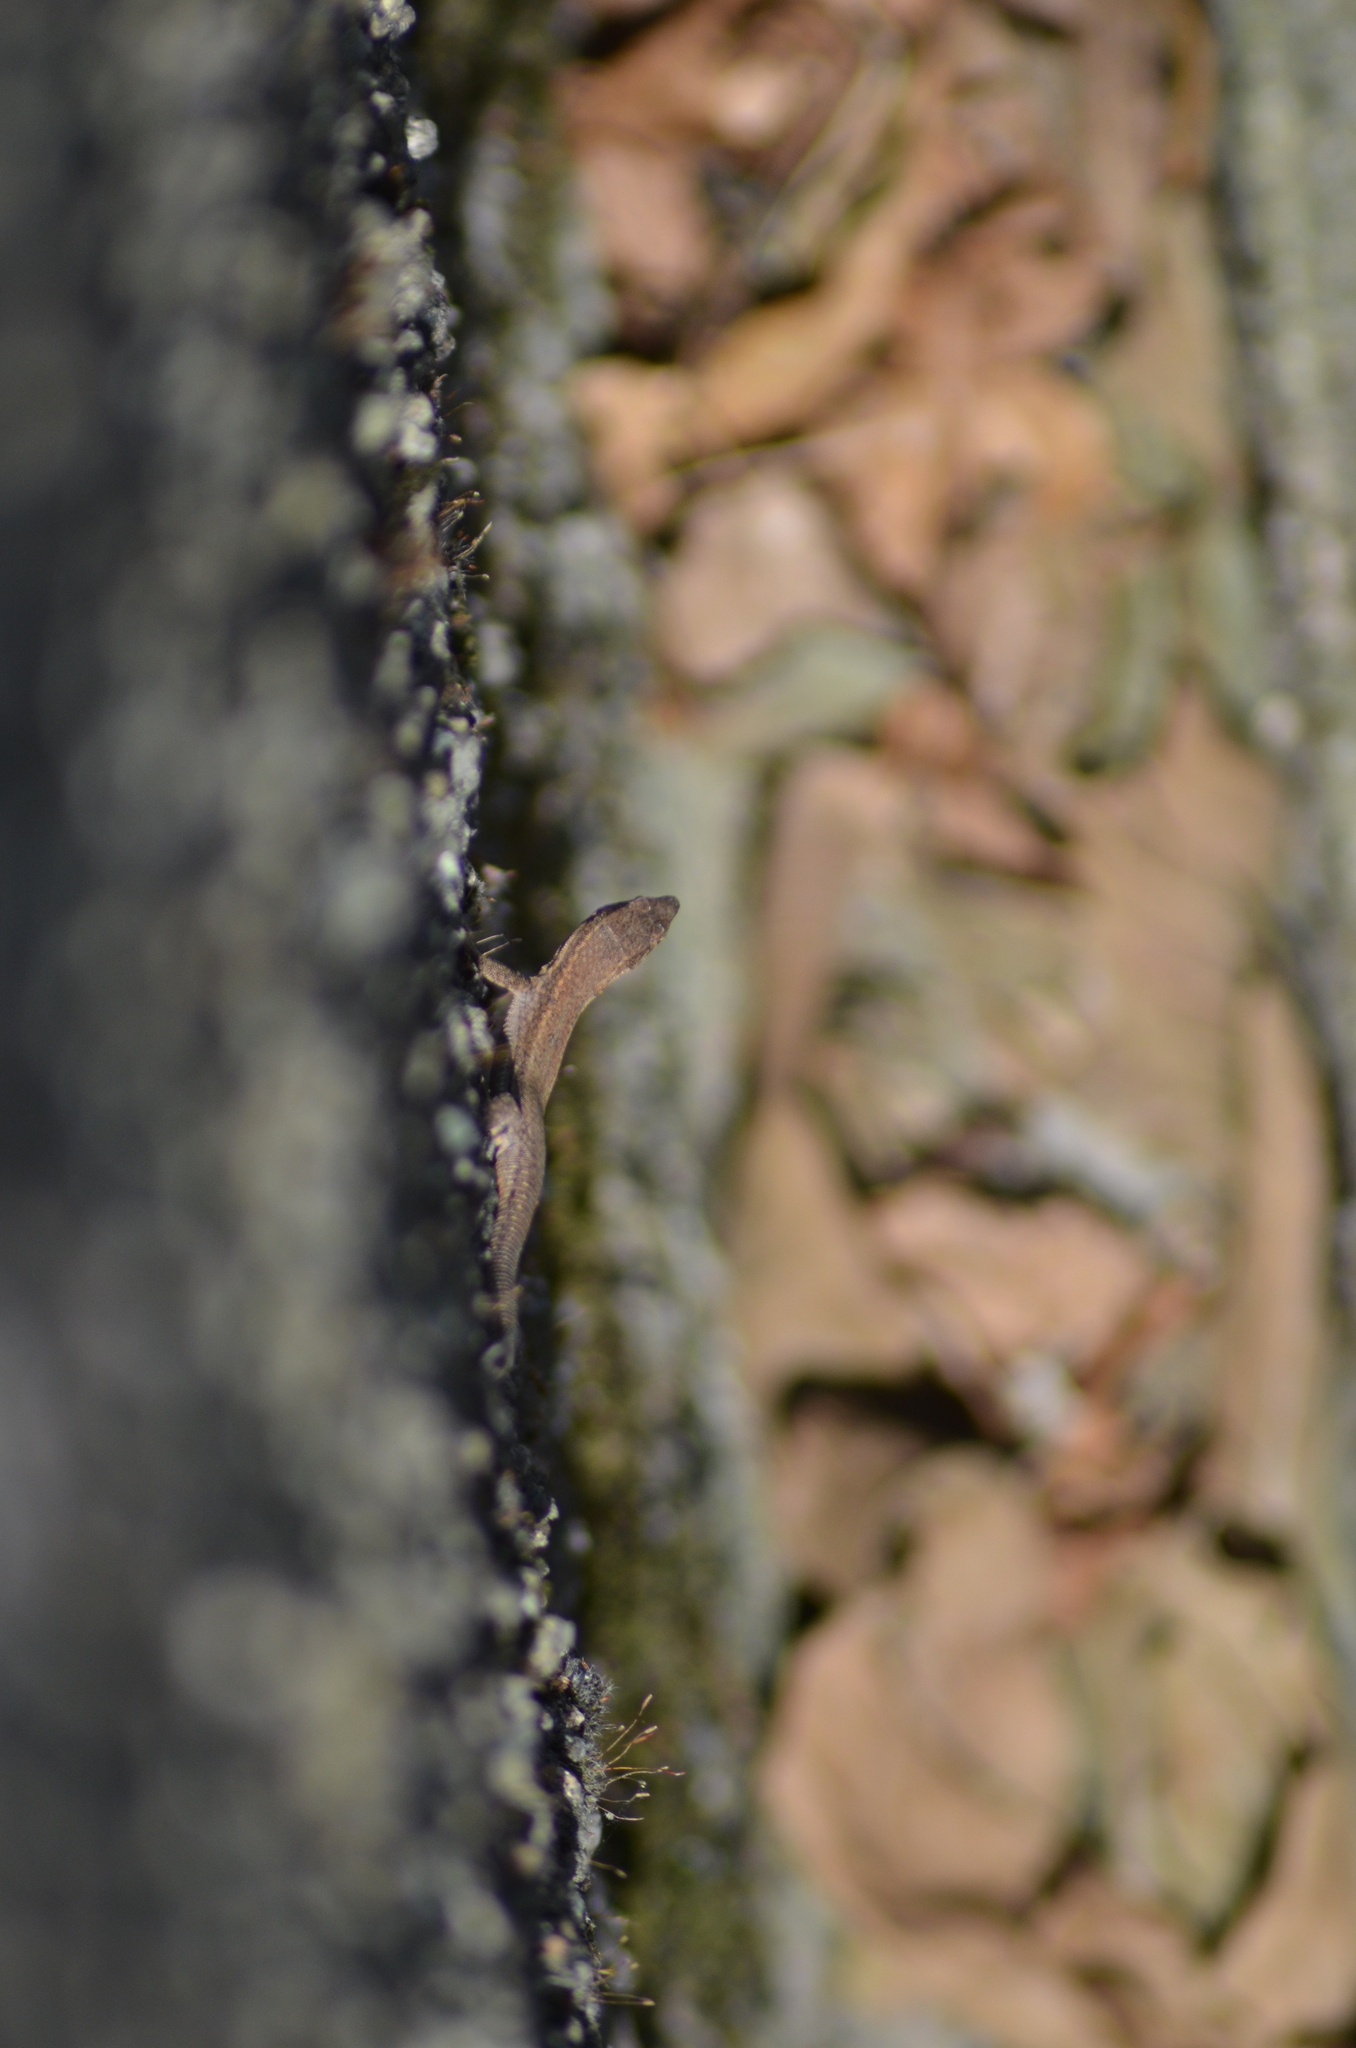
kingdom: Animalia
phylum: Chordata
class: Squamata
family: Lacertidae
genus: Podarcis
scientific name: Podarcis liolepis
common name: Catalonian wall lizard
